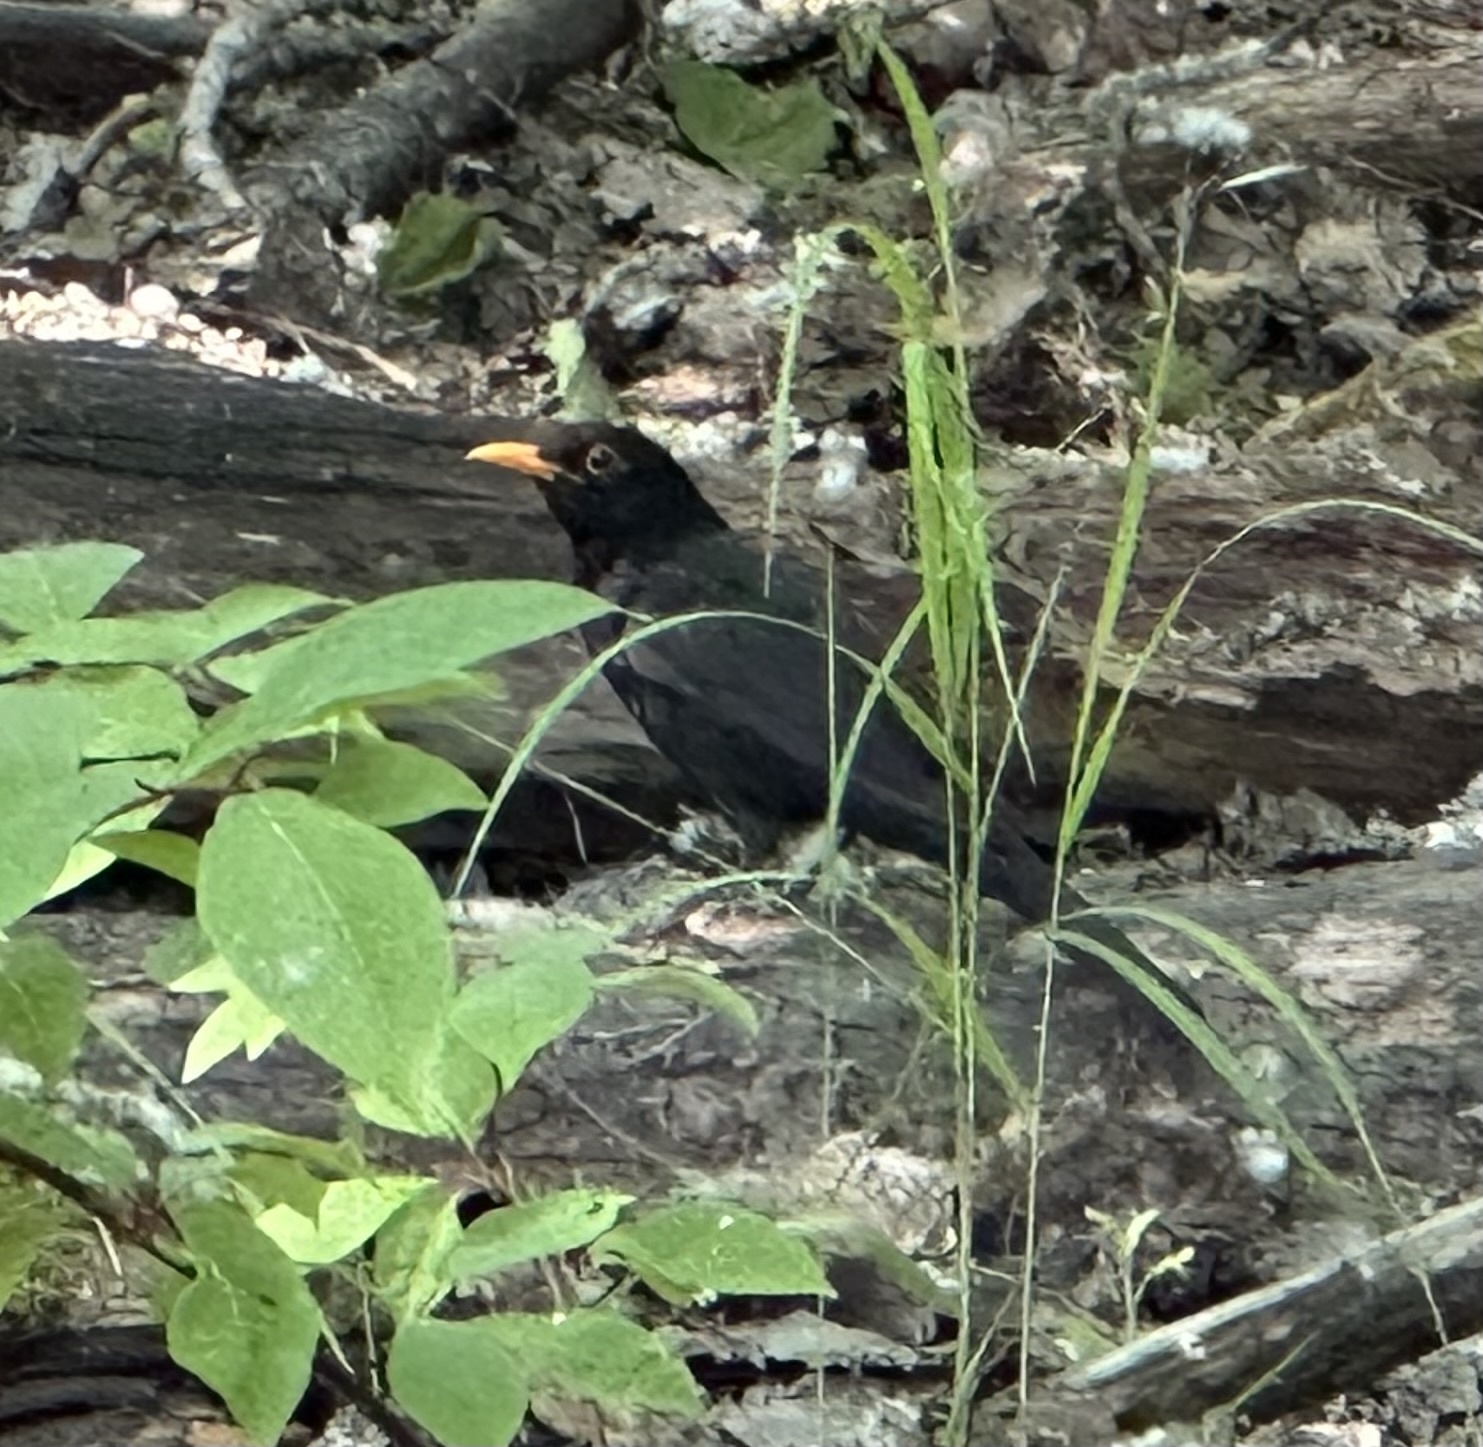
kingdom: Animalia
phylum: Chordata
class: Aves
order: Passeriformes
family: Turdidae
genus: Turdus
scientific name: Turdus merula
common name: Common blackbird
